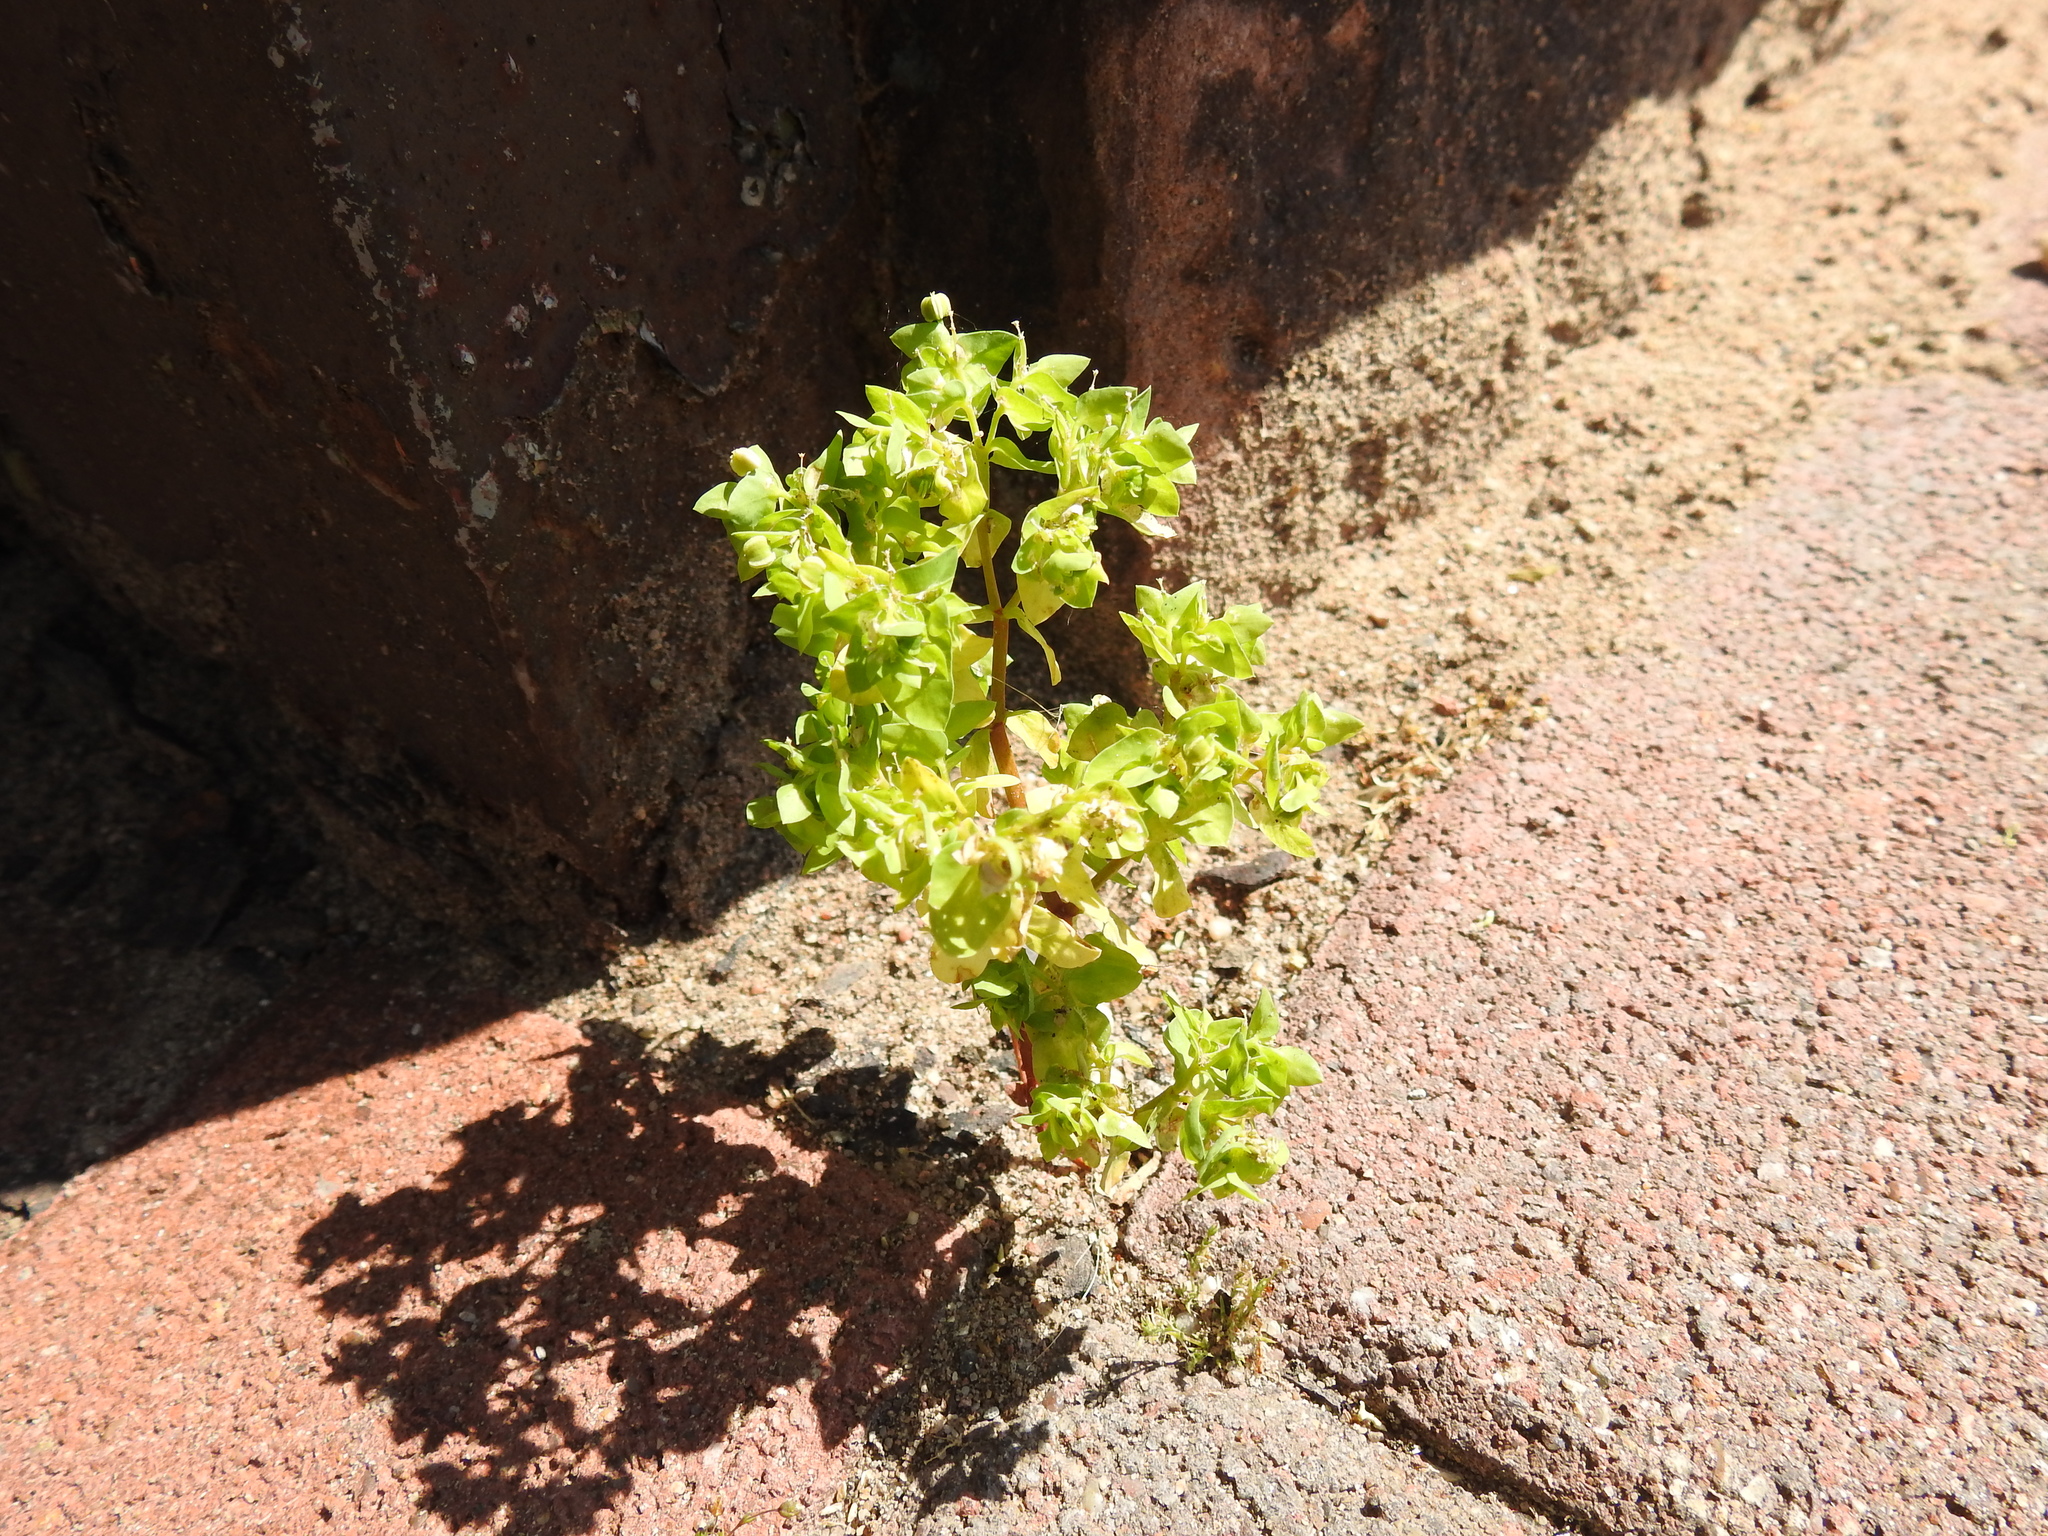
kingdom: Plantae
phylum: Tracheophyta
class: Magnoliopsida
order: Malpighiales
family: Euphorbiaceae
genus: Euphorbia
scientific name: Euphorbia peplus
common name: Petty spurge
